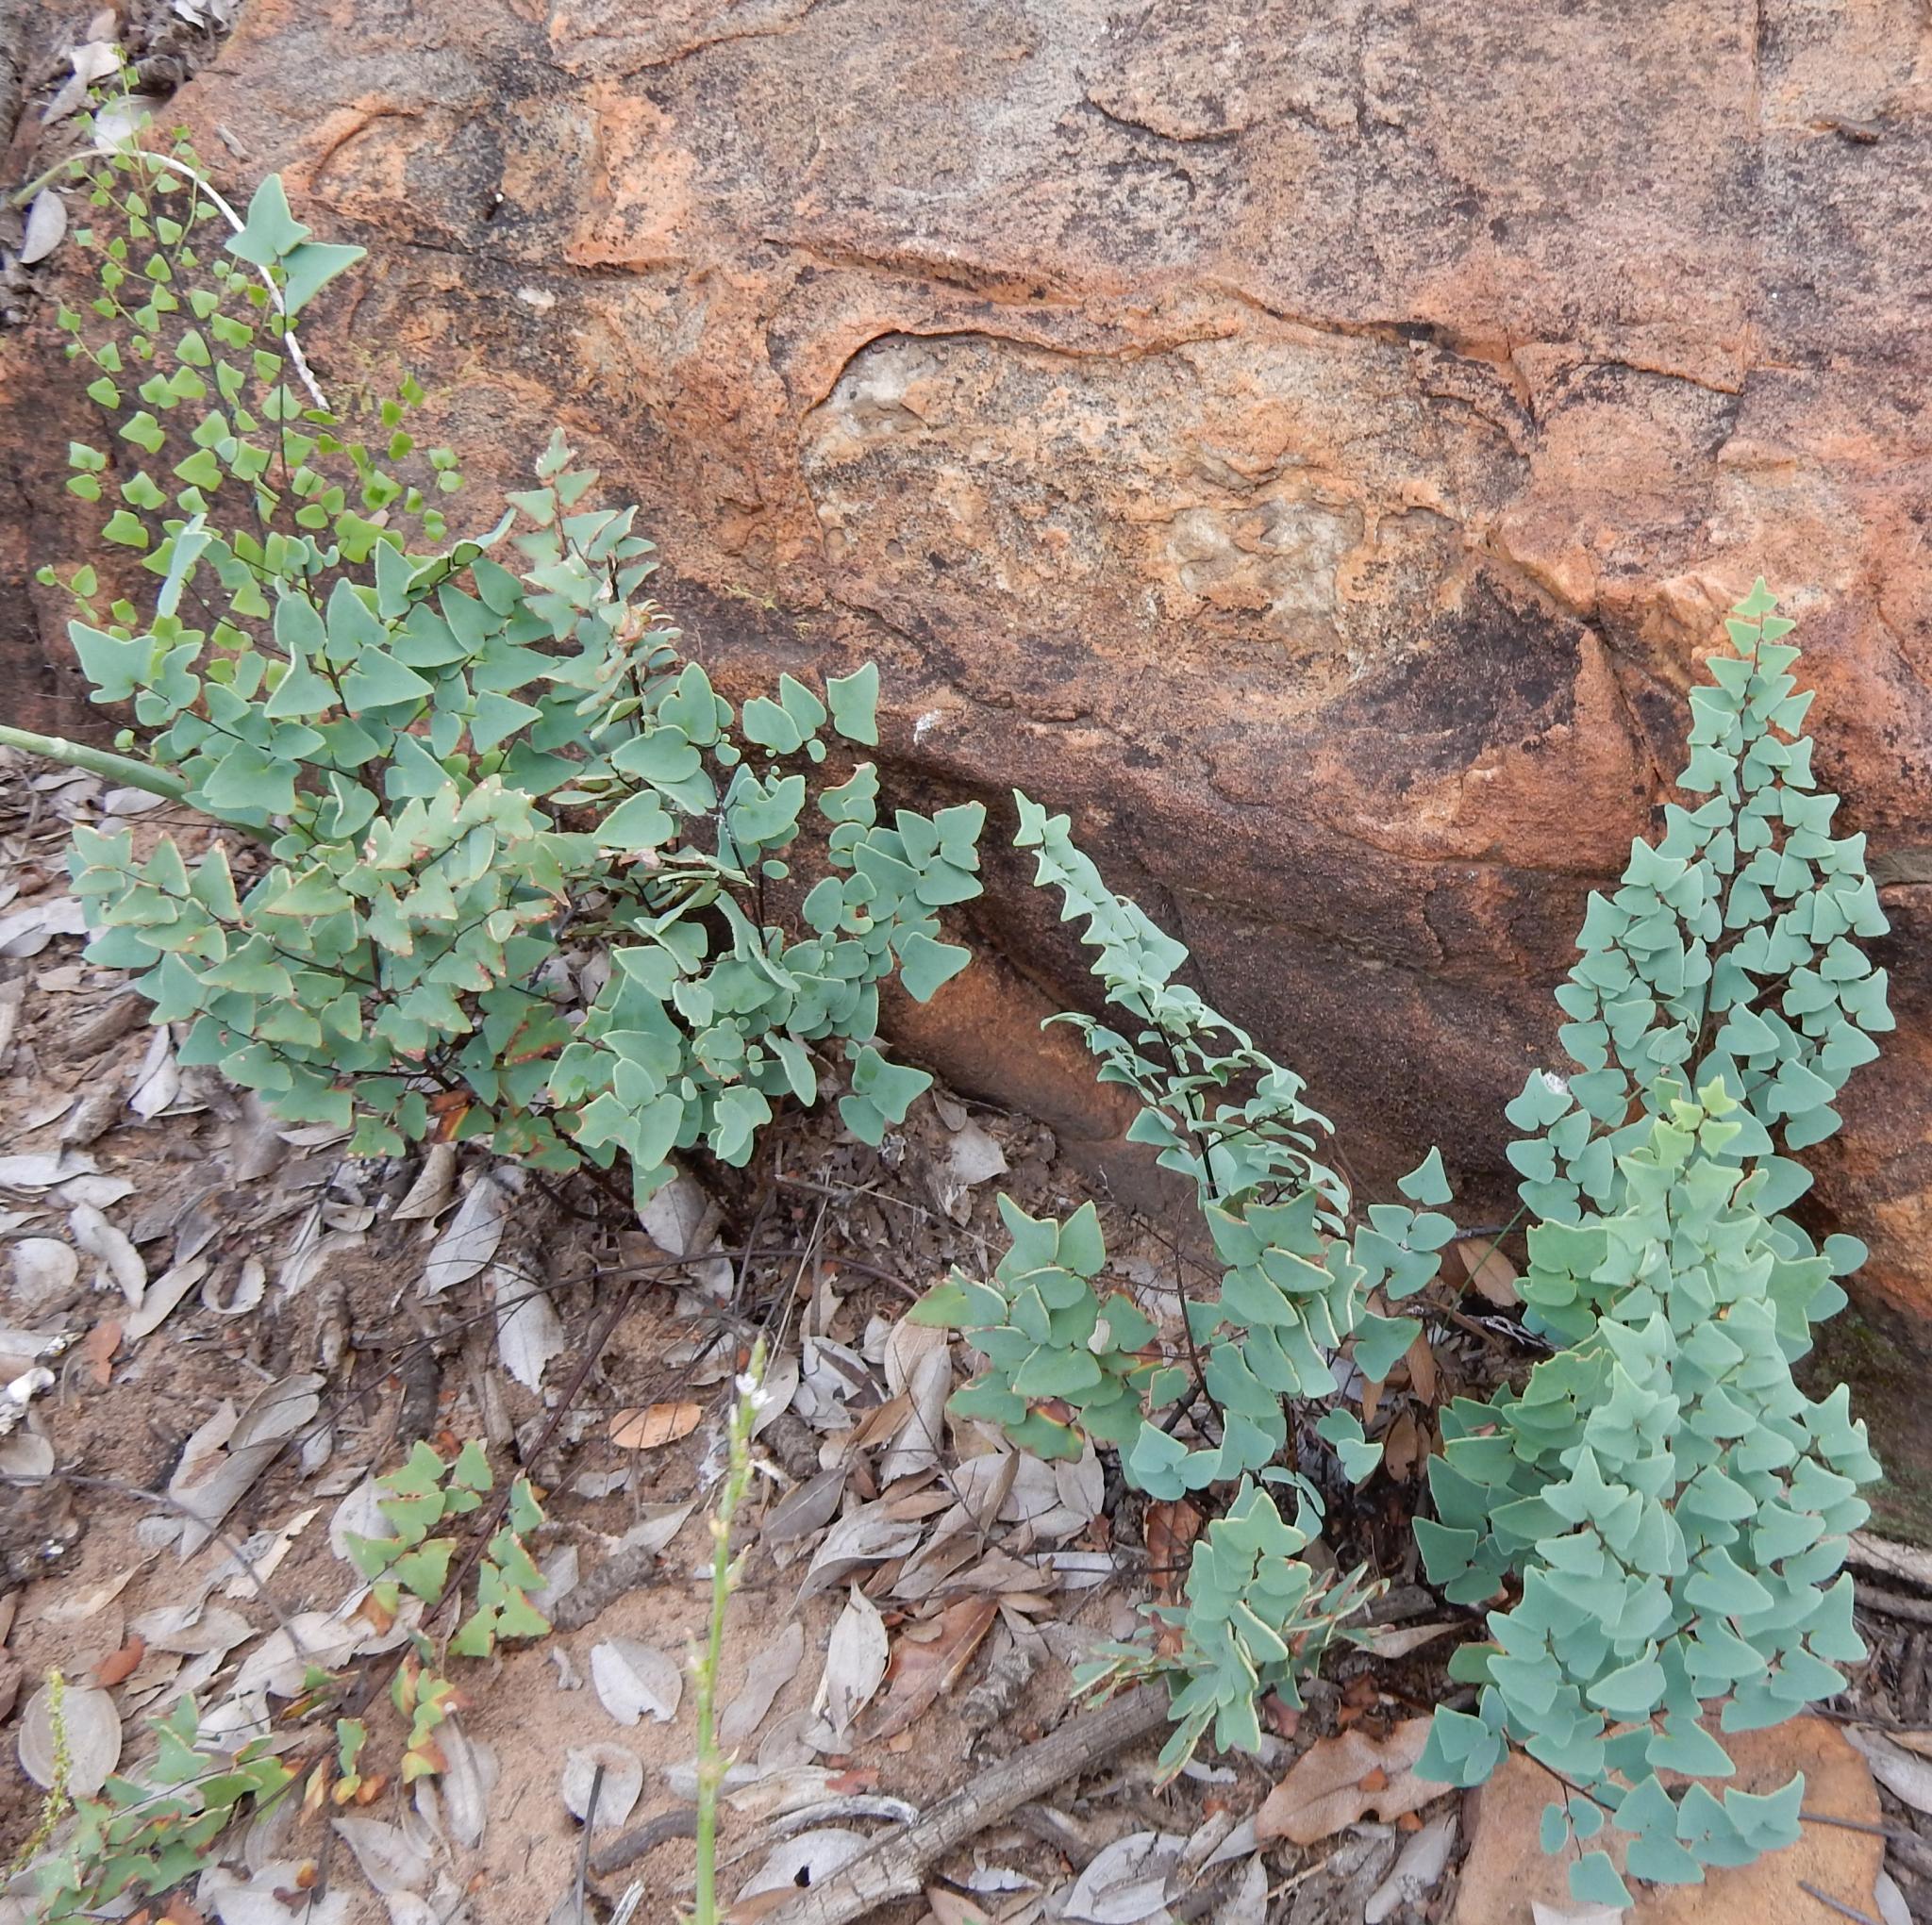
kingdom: Plantae
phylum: Tracheophyta
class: Polypodiopsida
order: Polypodiales
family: Pteridaceae
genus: Pellaea
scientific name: Pellaea calomelanos
